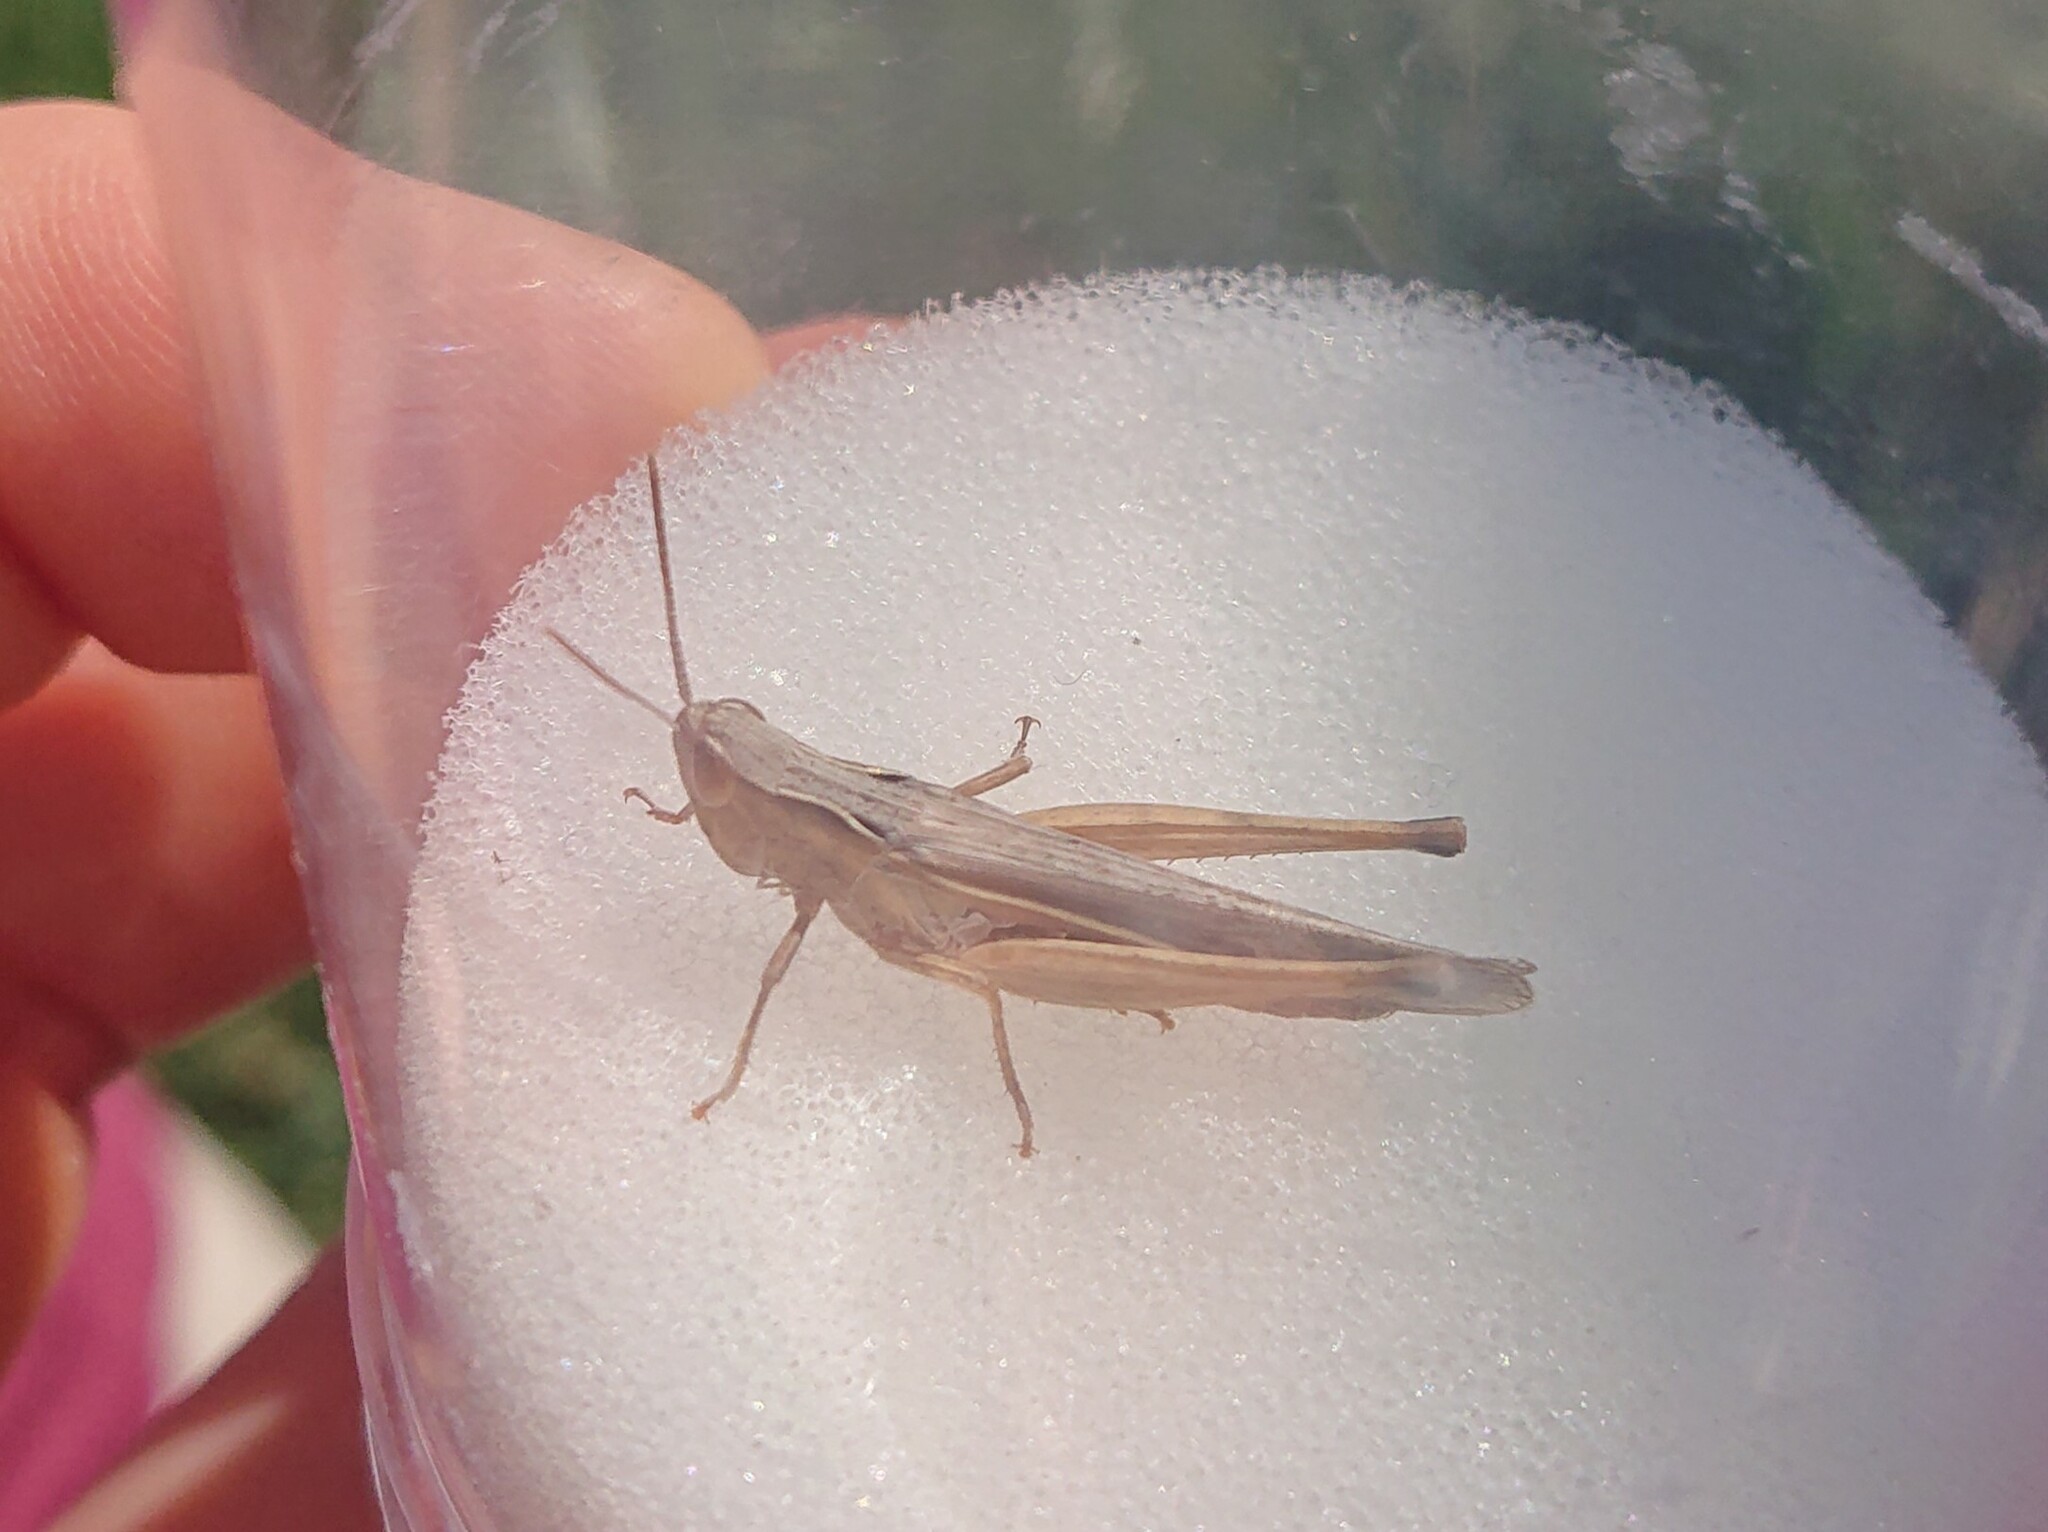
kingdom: Animalia
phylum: Arthropoda
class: Insecta
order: Orthoptera
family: Acrididae
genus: Chorthippus
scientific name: Chorthippus loratus
